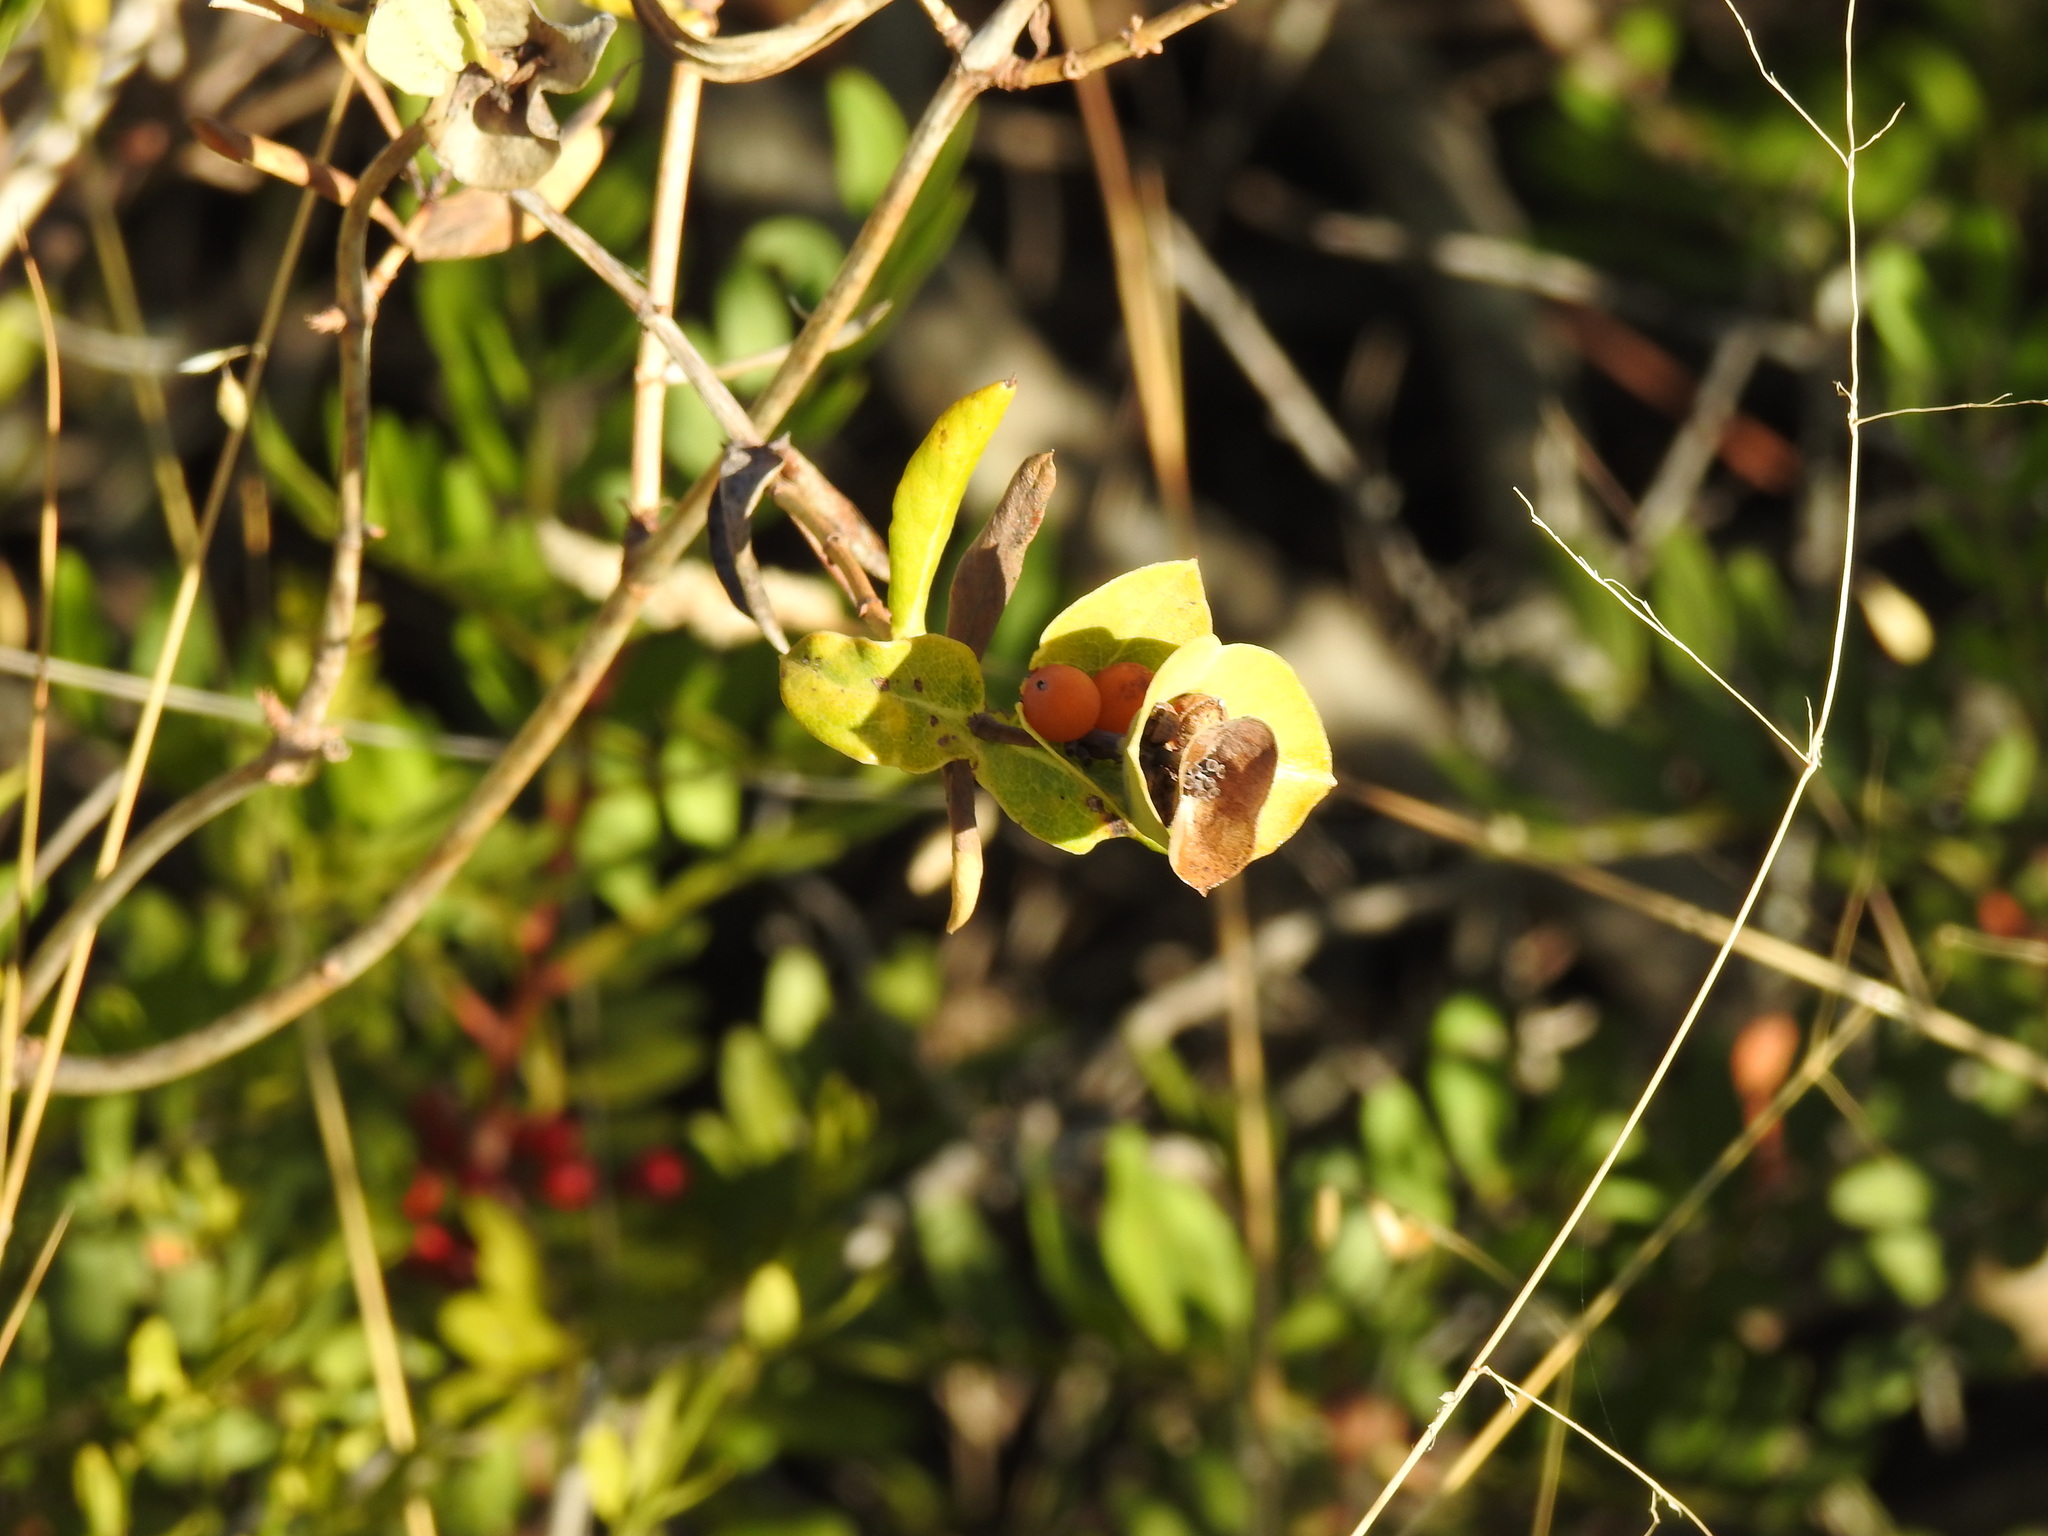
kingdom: Plantae
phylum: Tracheophyta
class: Magnoliopsida
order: Dipsacales
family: Caprifoliaceae
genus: Lonicera
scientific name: Lonicera implexa
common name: Minorca honeysuckle
